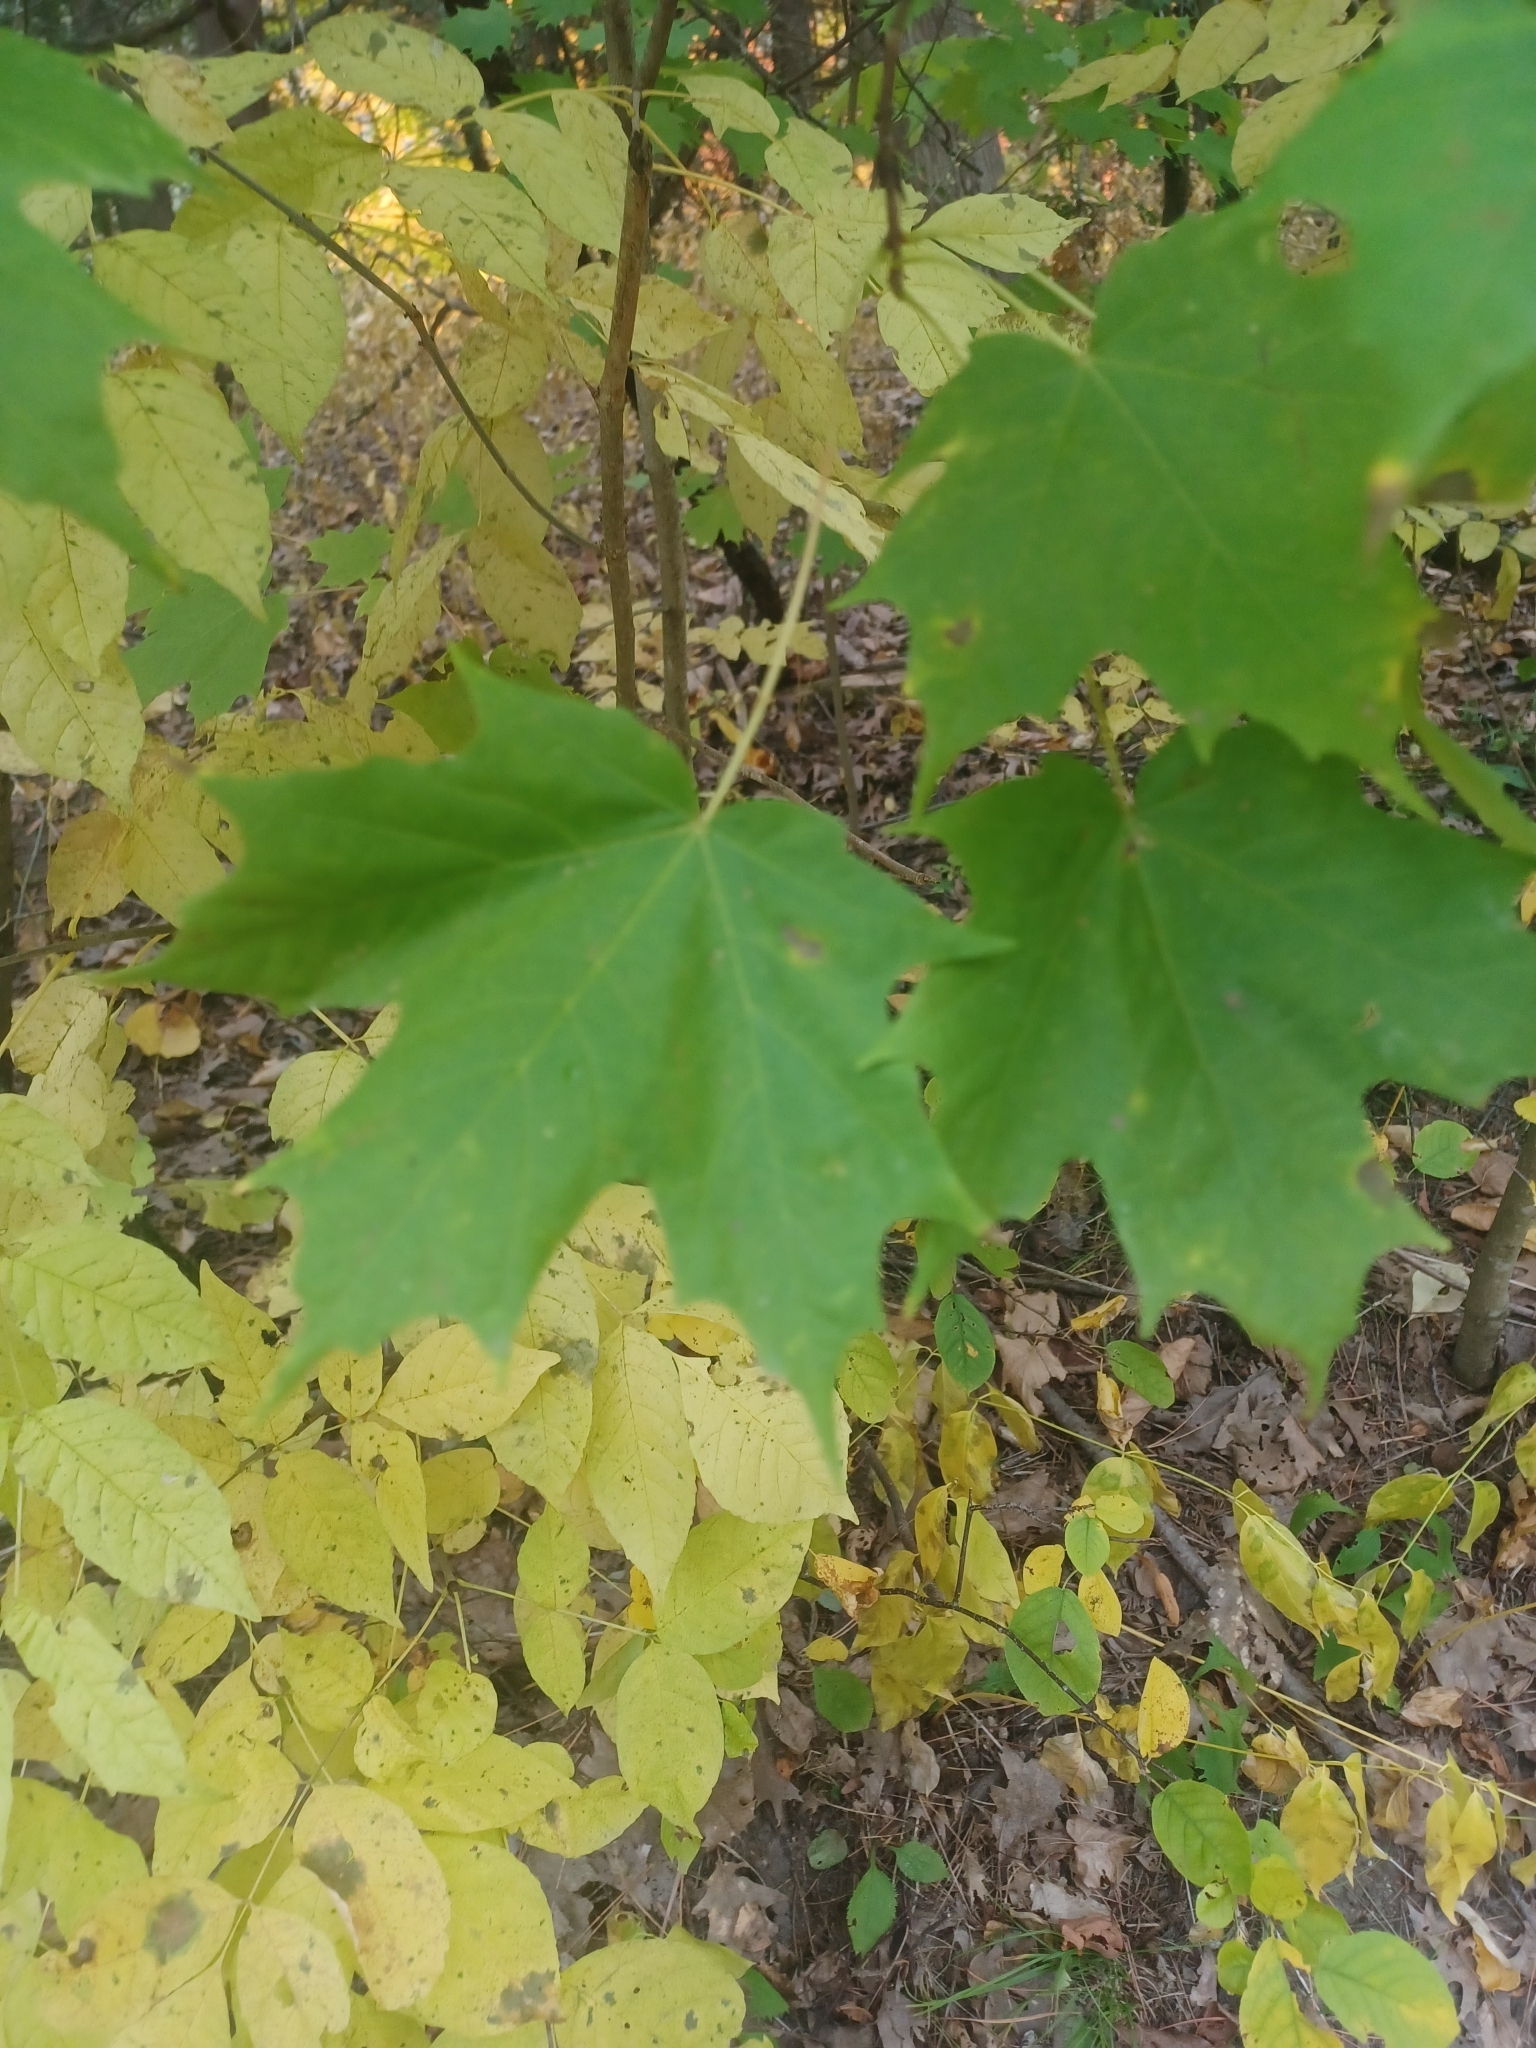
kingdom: Plantae
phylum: Tracheophyta
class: Magnoliopsida
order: Sapindales
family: Sapindaceae
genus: Acer
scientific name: Acer saccharum
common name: Sugar maple
